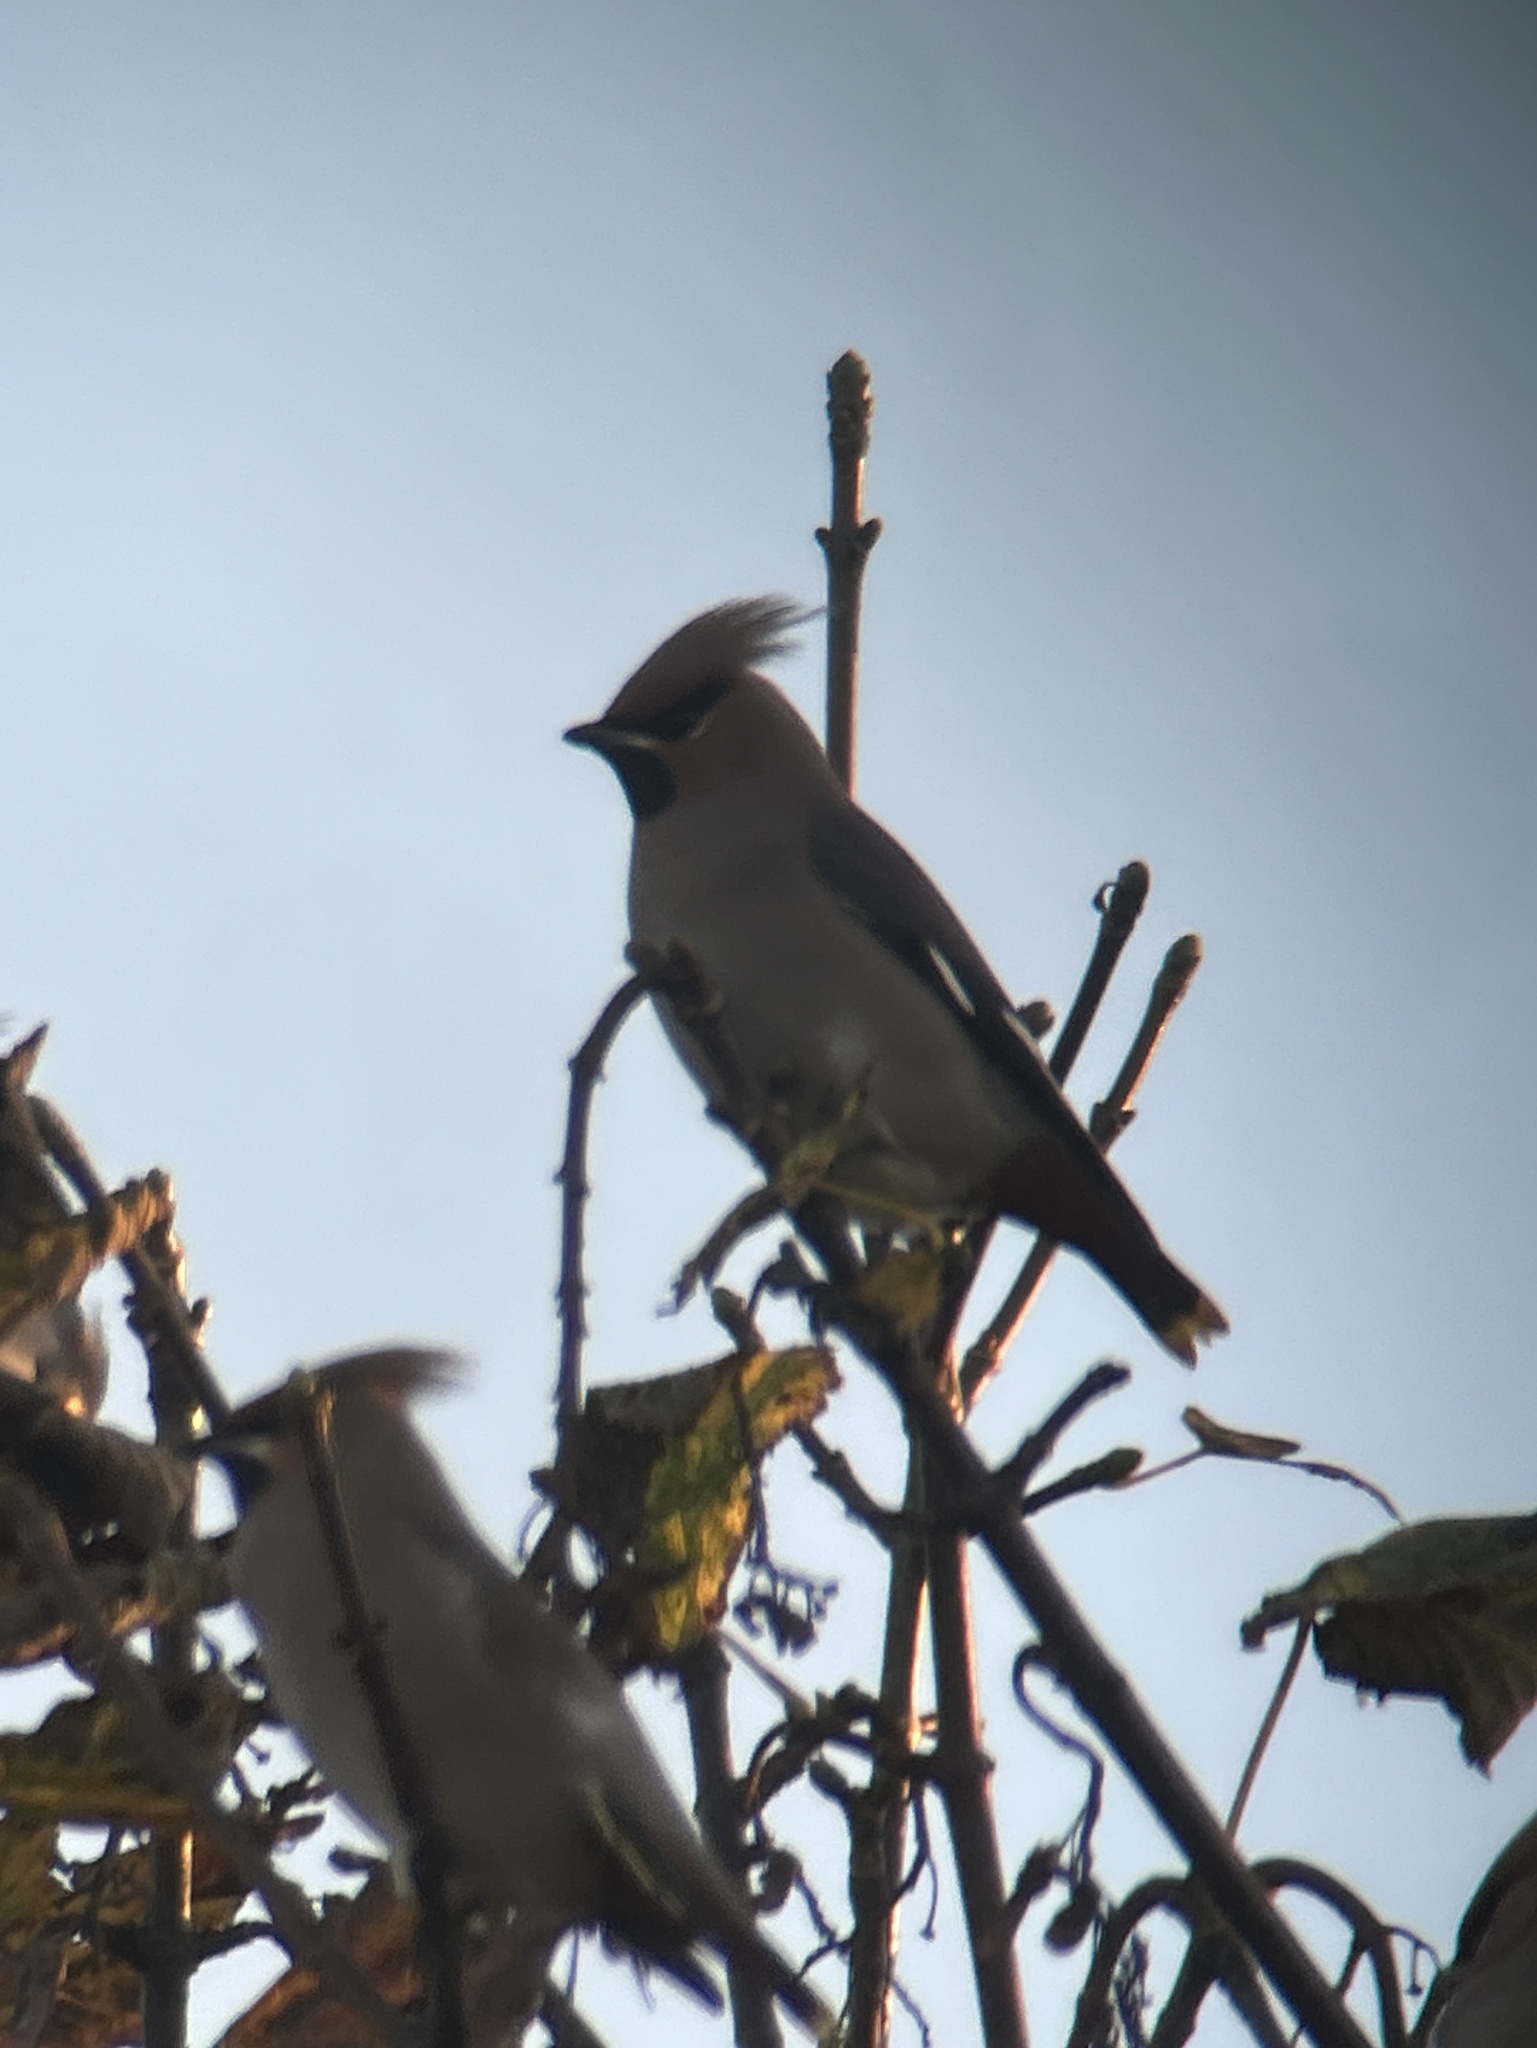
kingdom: Animalia
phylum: Chordata
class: Aves
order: Passeriformes
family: Bombycillidae
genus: Bombycilla
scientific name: Bombycilla garrulus
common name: Bohemian waxwing
